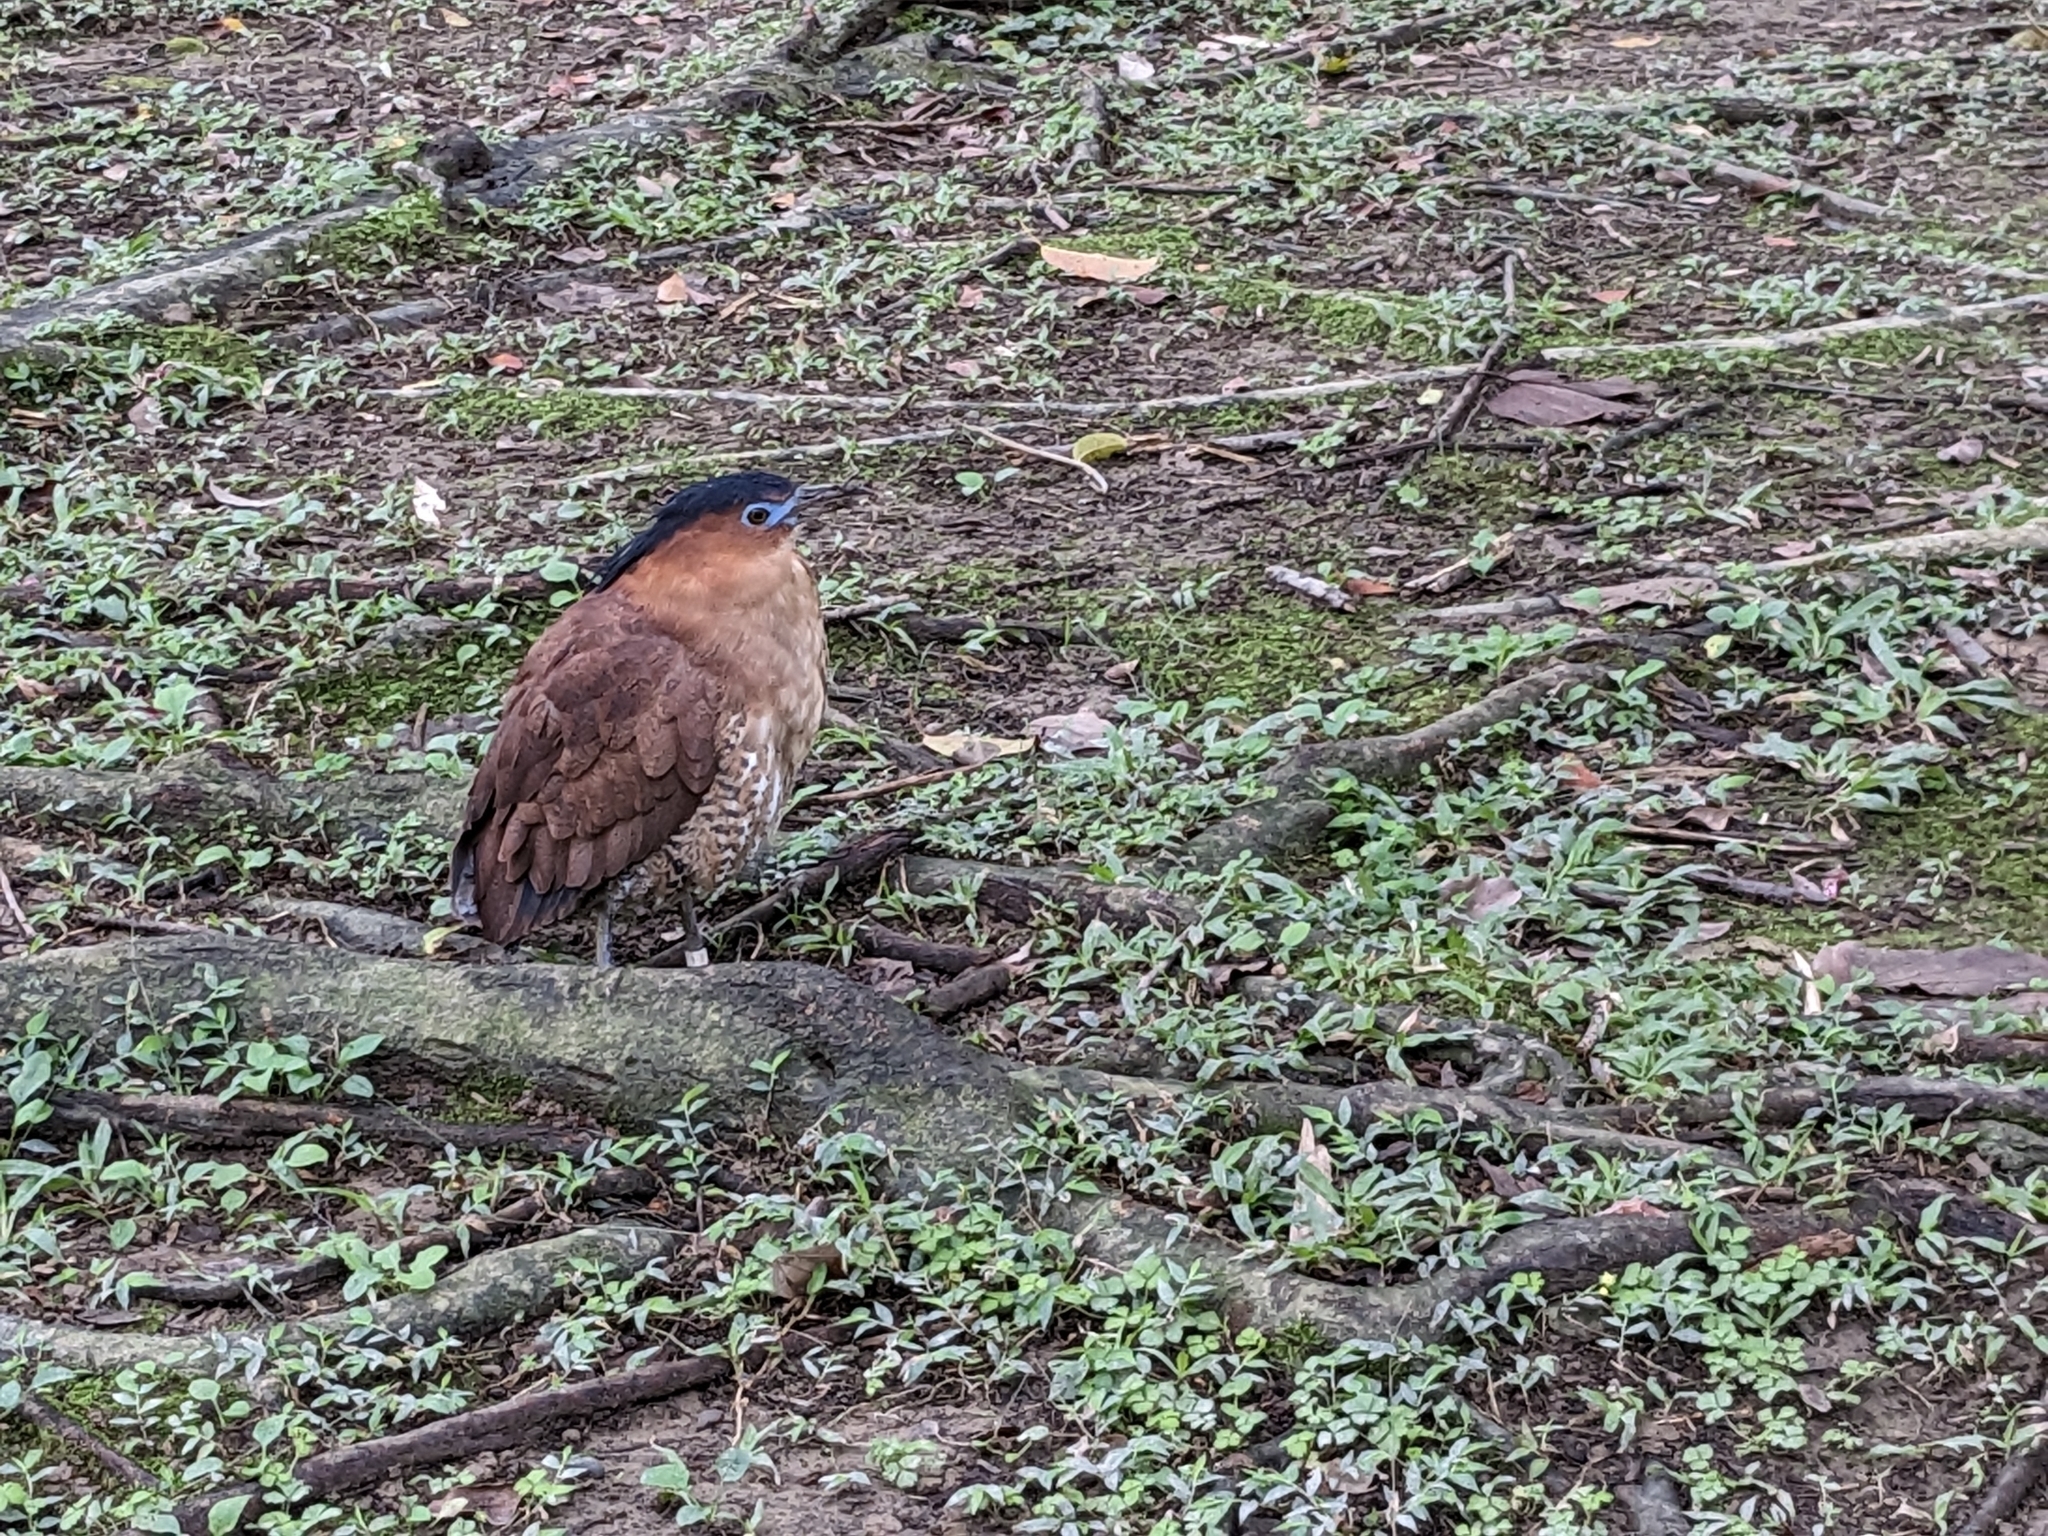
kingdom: Animalia
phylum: Chordata
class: Aves
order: Pelecaniformes
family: Ardeidae
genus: Gorsachius
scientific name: Gorsachius melanolophus
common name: Malayan night heron
